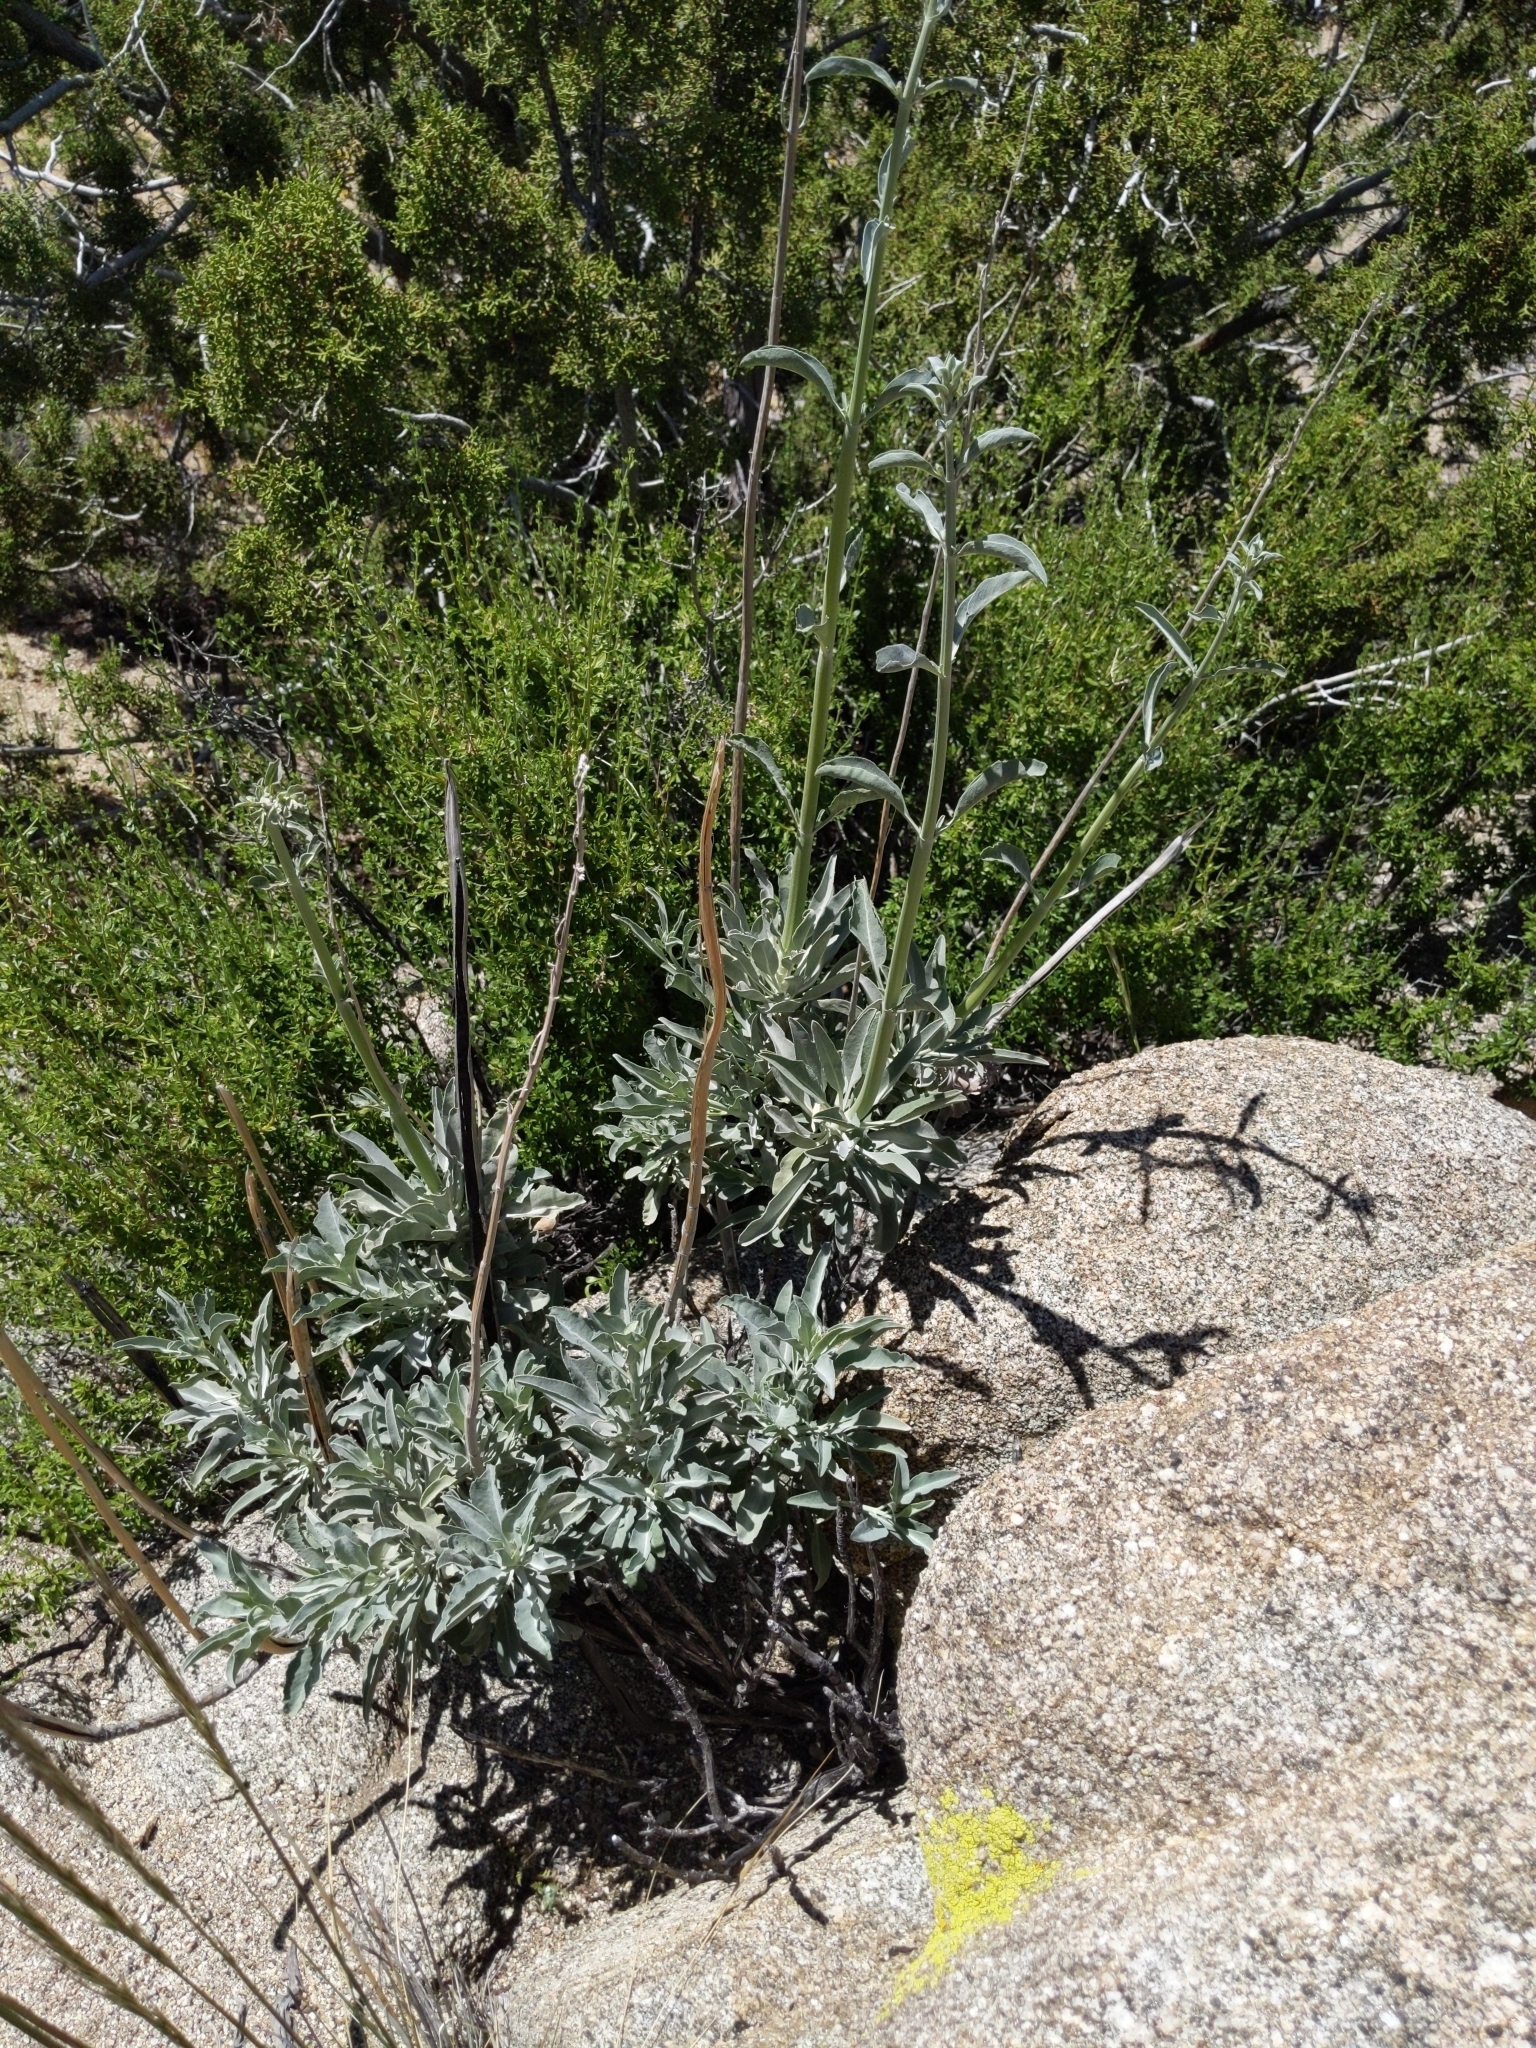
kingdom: Plantae
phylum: Tracheophyta
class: Magnoliopsida
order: Lamiales
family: Lamiaceae
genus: Salvia
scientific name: Salvia apiana
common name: White sage
